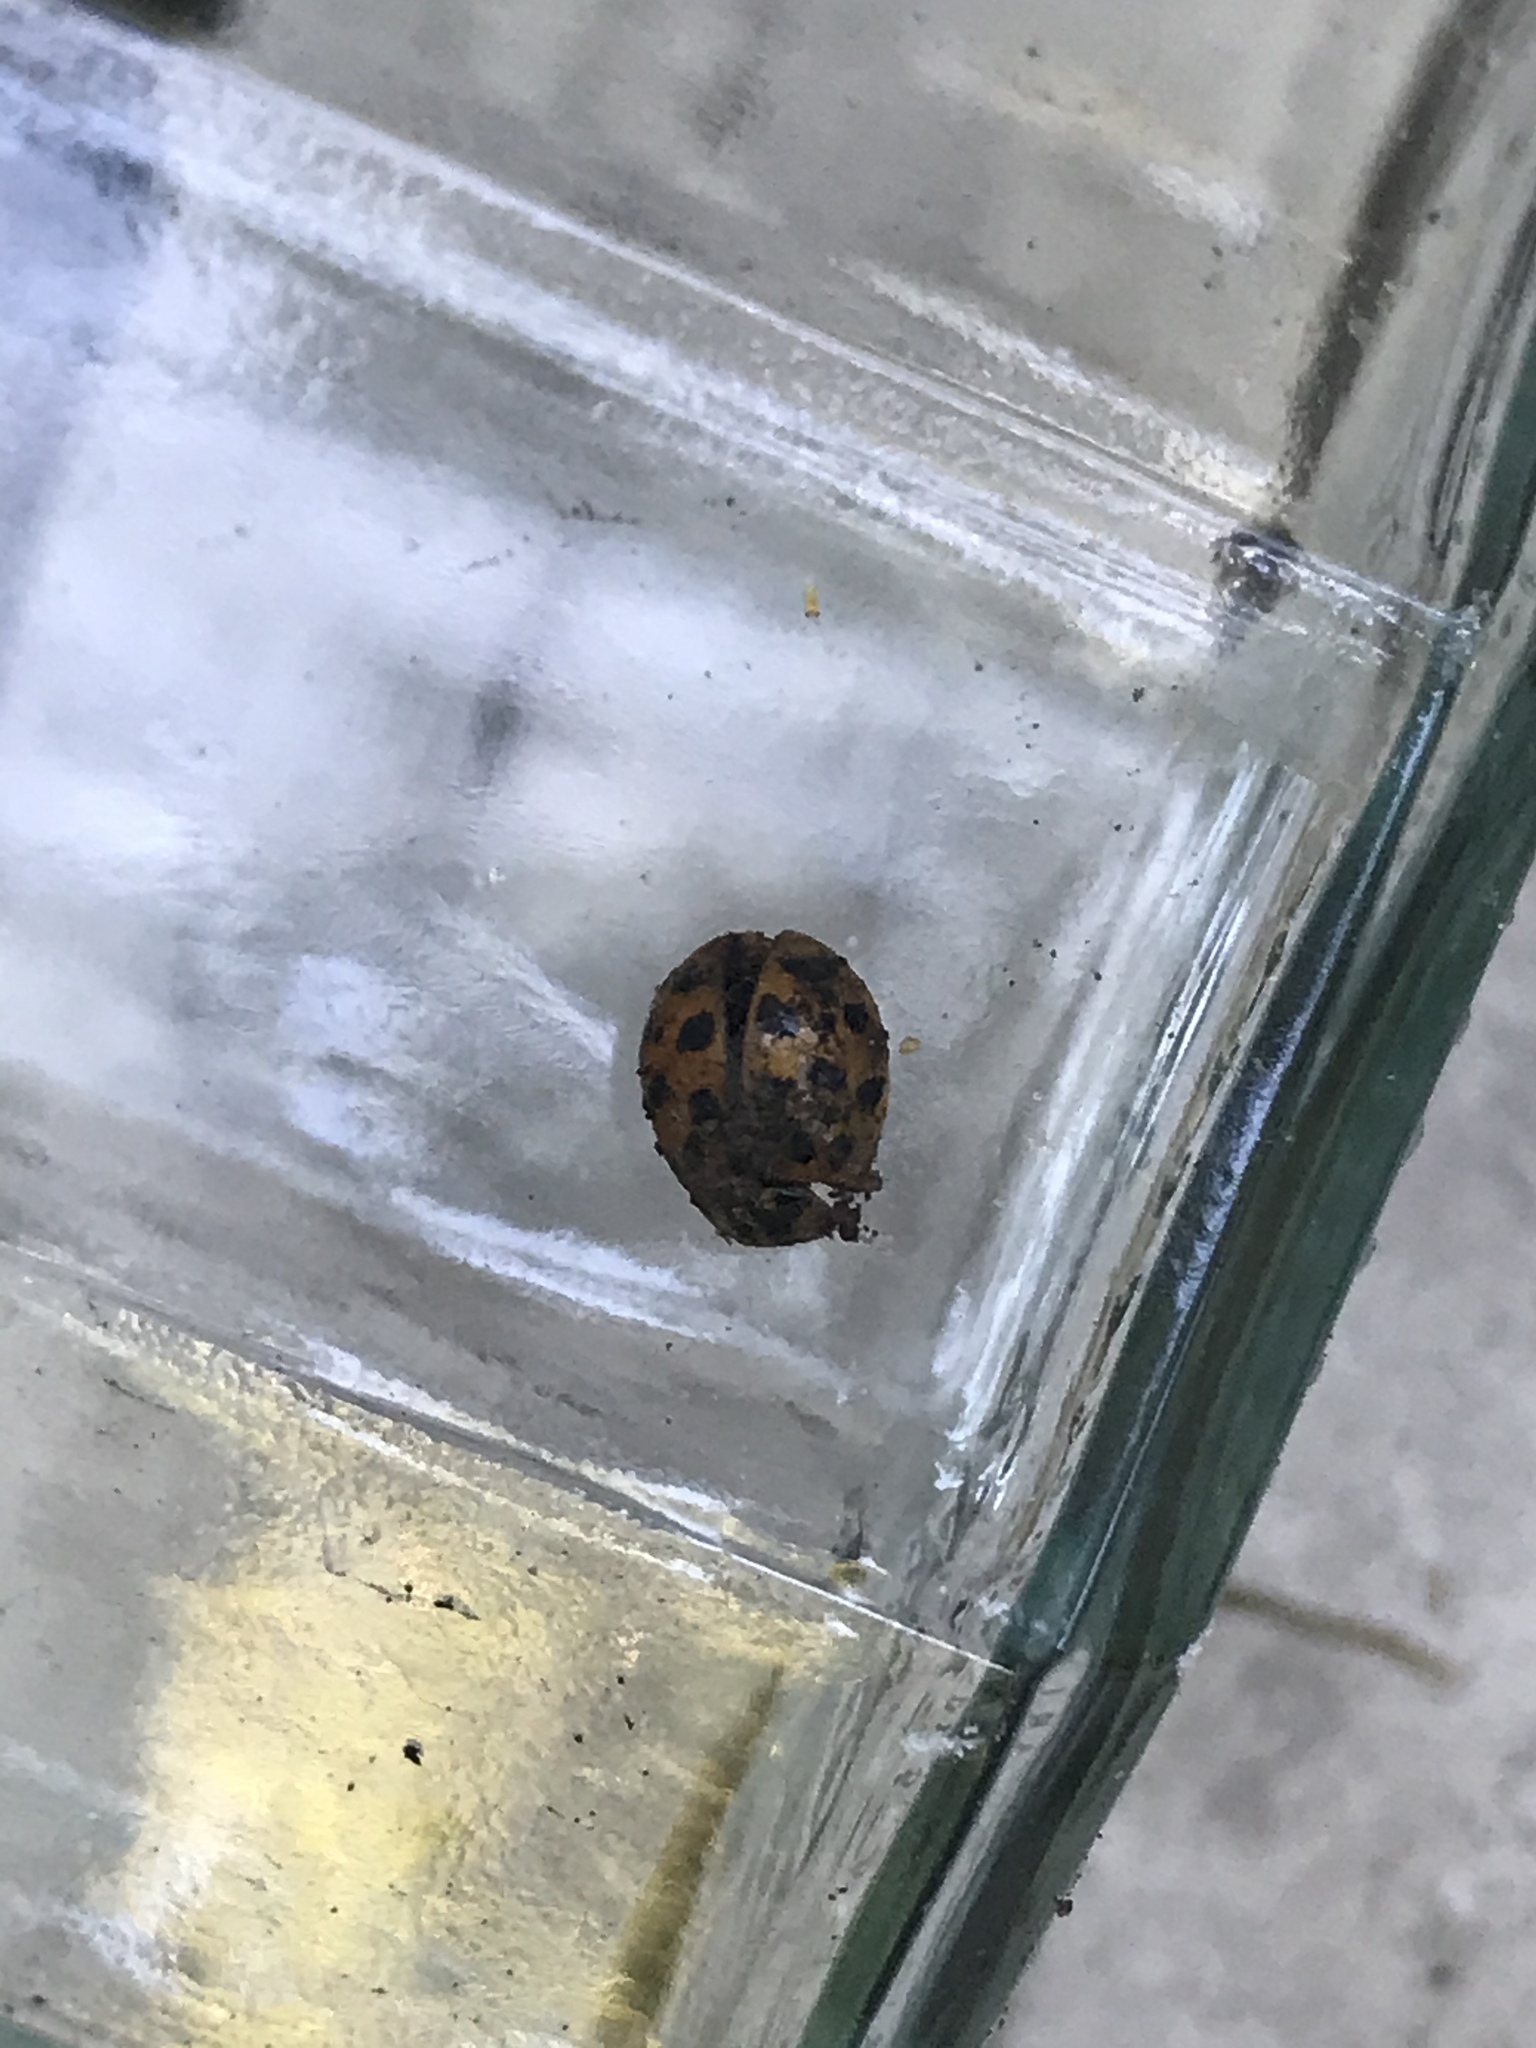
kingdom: Animalia
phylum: Arthropoda
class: Insecta
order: Coleoptera
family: Coccinellidae
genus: Harmonia
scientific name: Harmonia axyridis
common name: Harlequin ladybird
